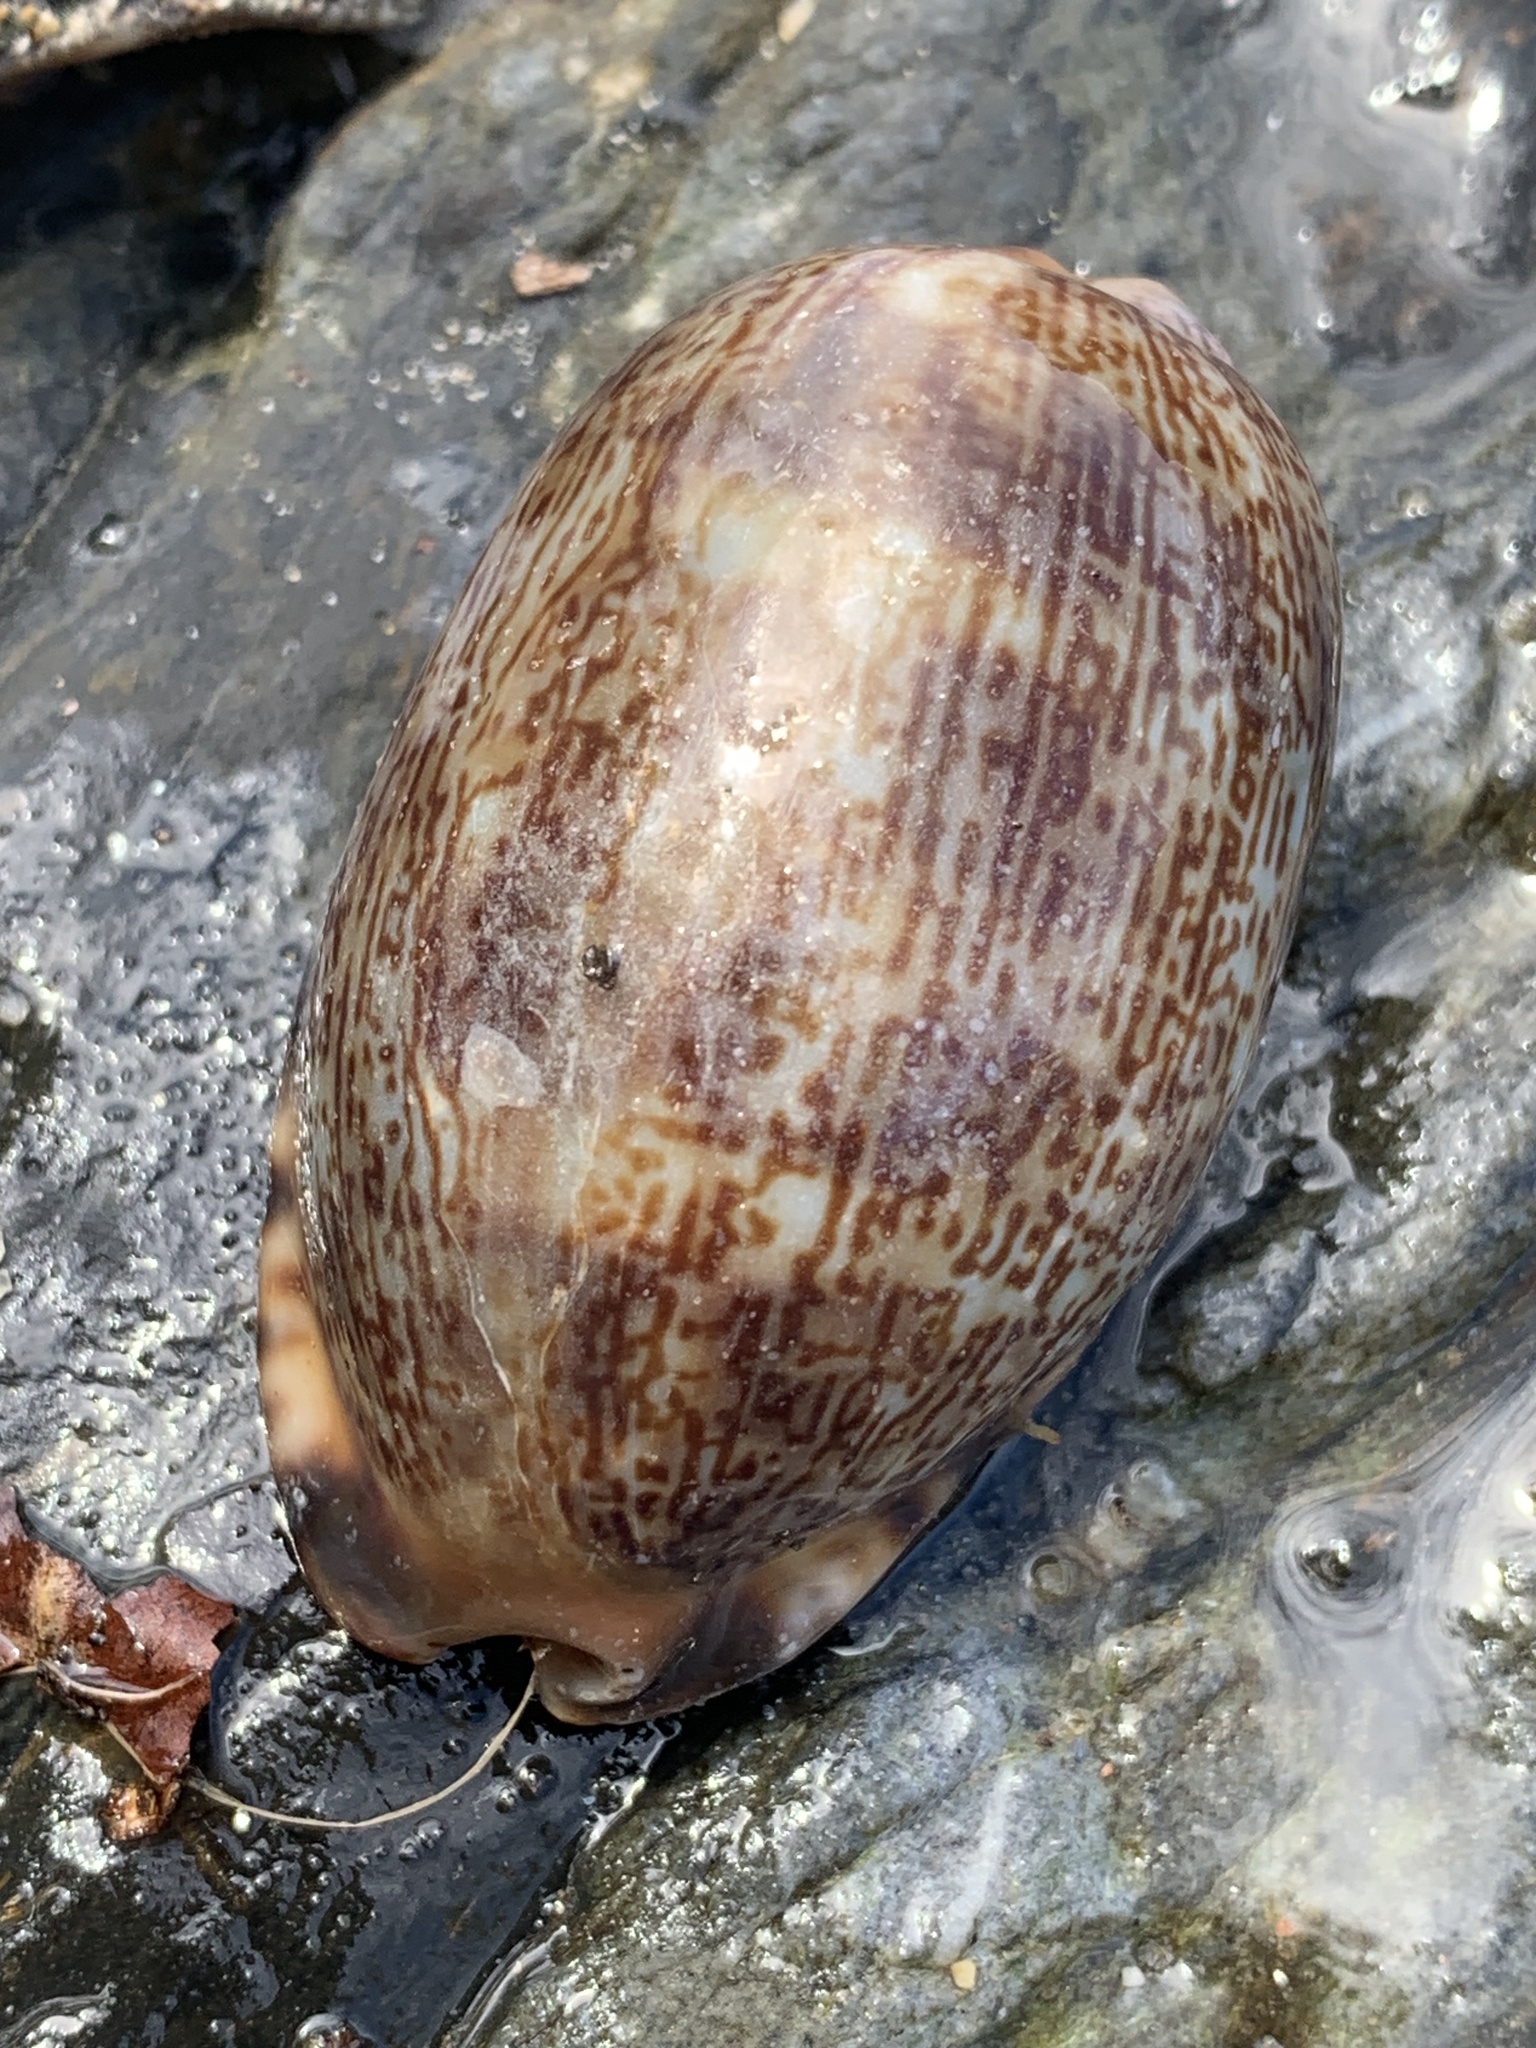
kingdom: Animalia
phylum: Mollusca
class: Gastropoda
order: Littorinimorpha
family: Cypraeidae
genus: Mauritia
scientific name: Mauritia arabica
